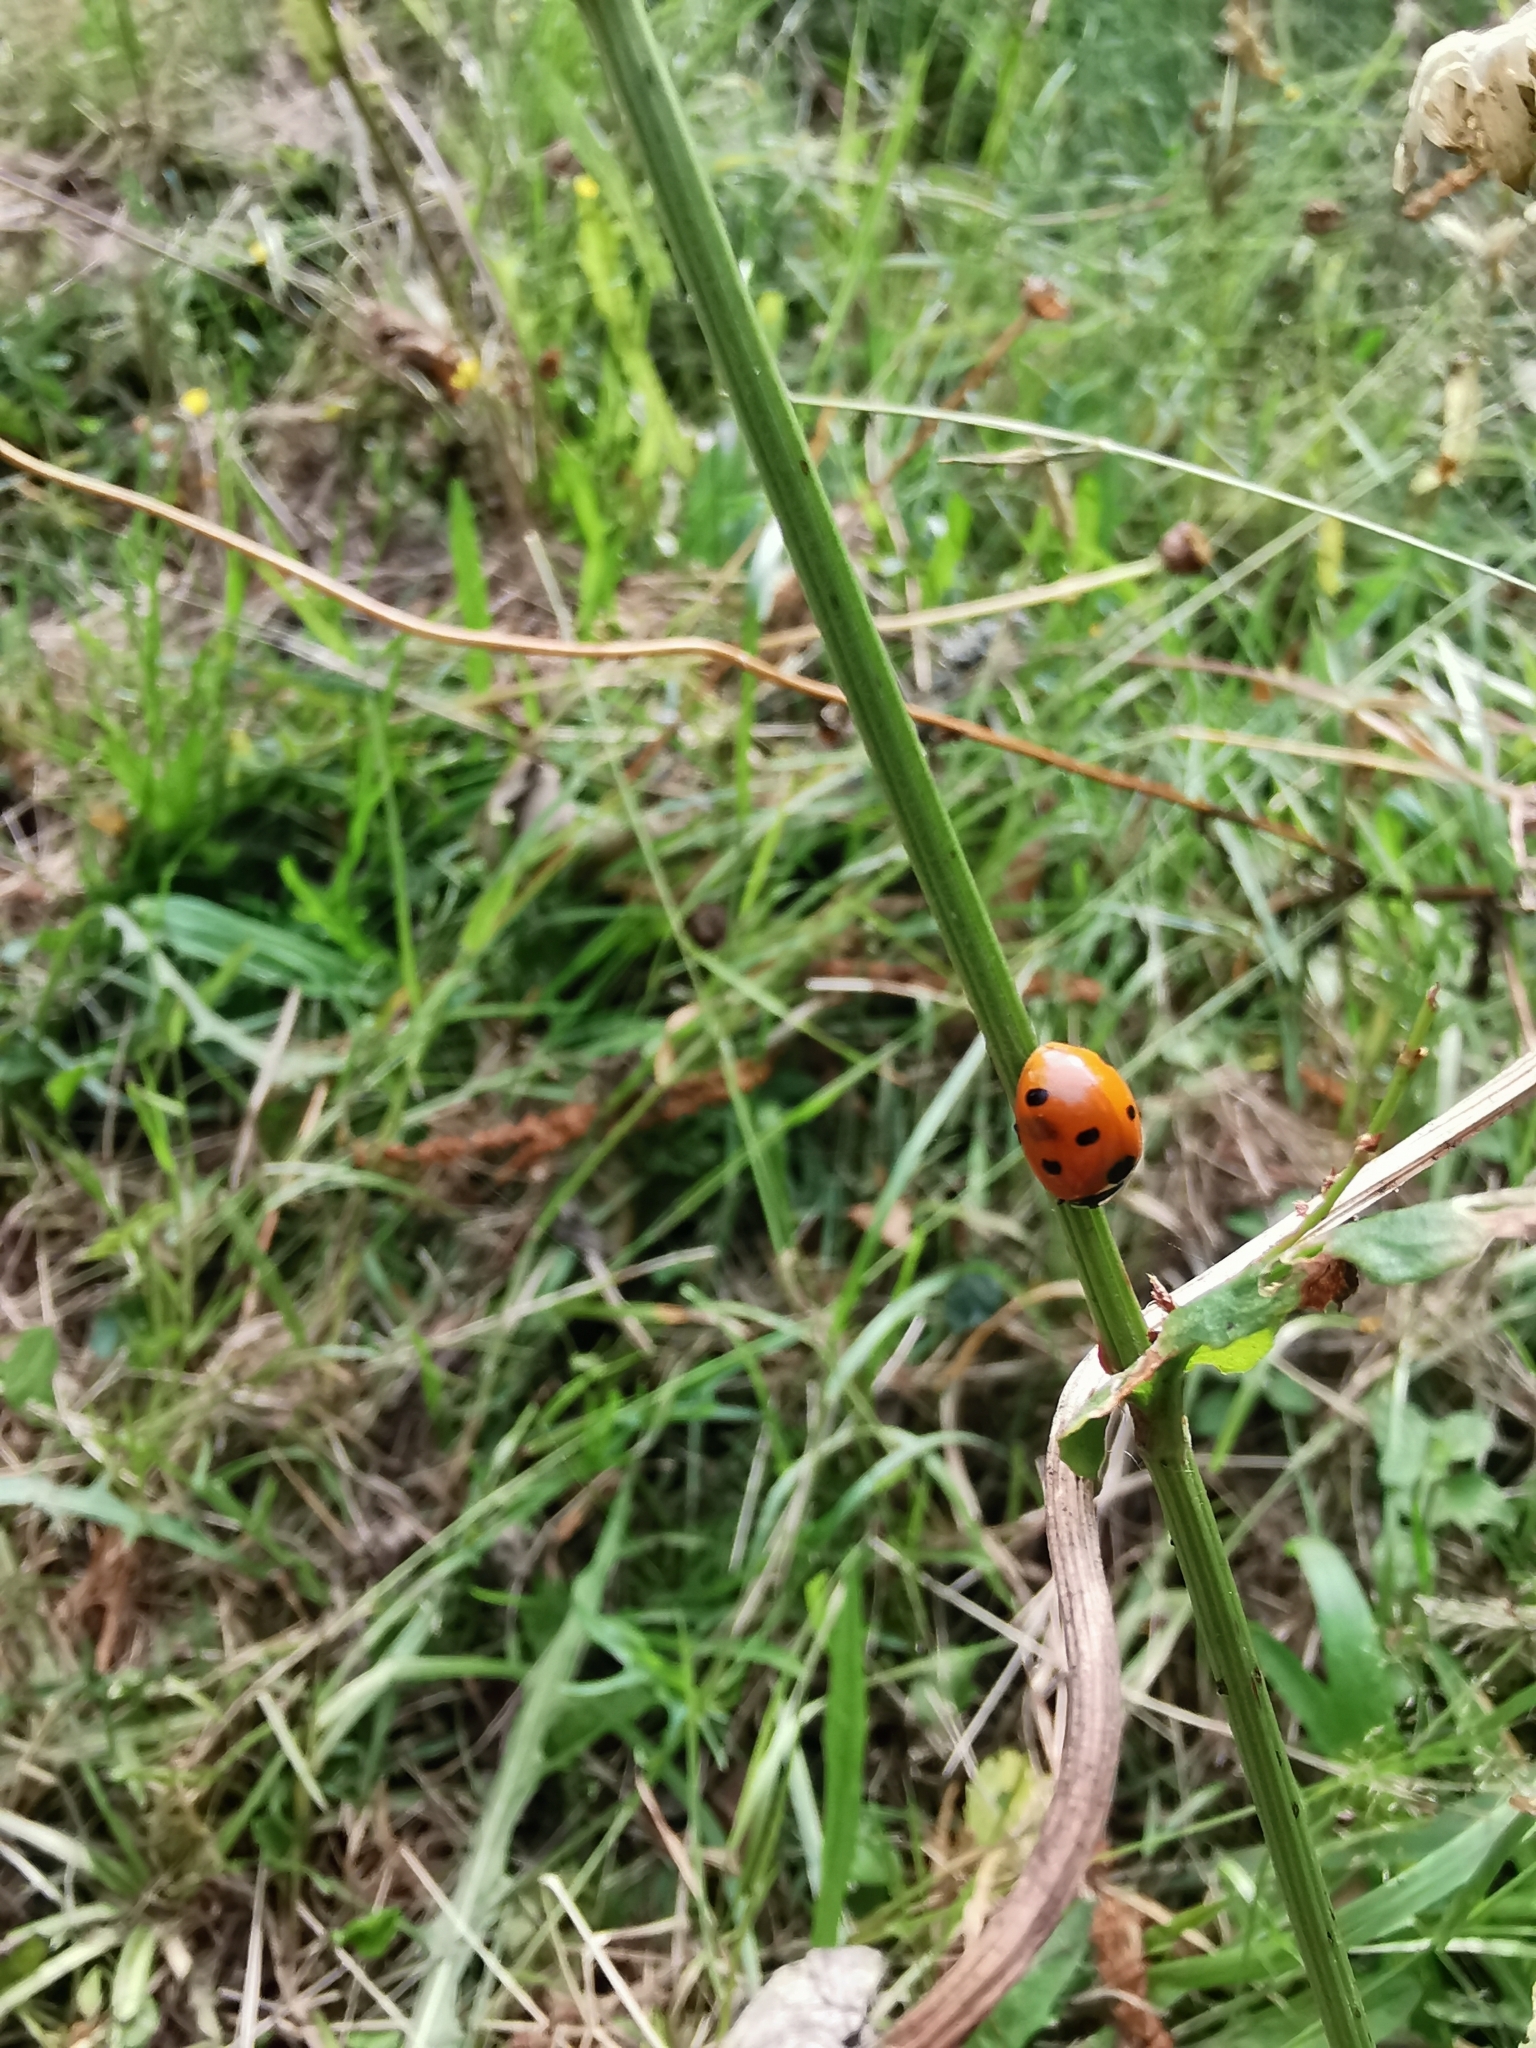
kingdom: Animalia
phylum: Arthropoda
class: Insecta
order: Coleoptera
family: Coccinellidae
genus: Coccinella
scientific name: Coccinella septempunctata
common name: Sevenspotted lady beetle
